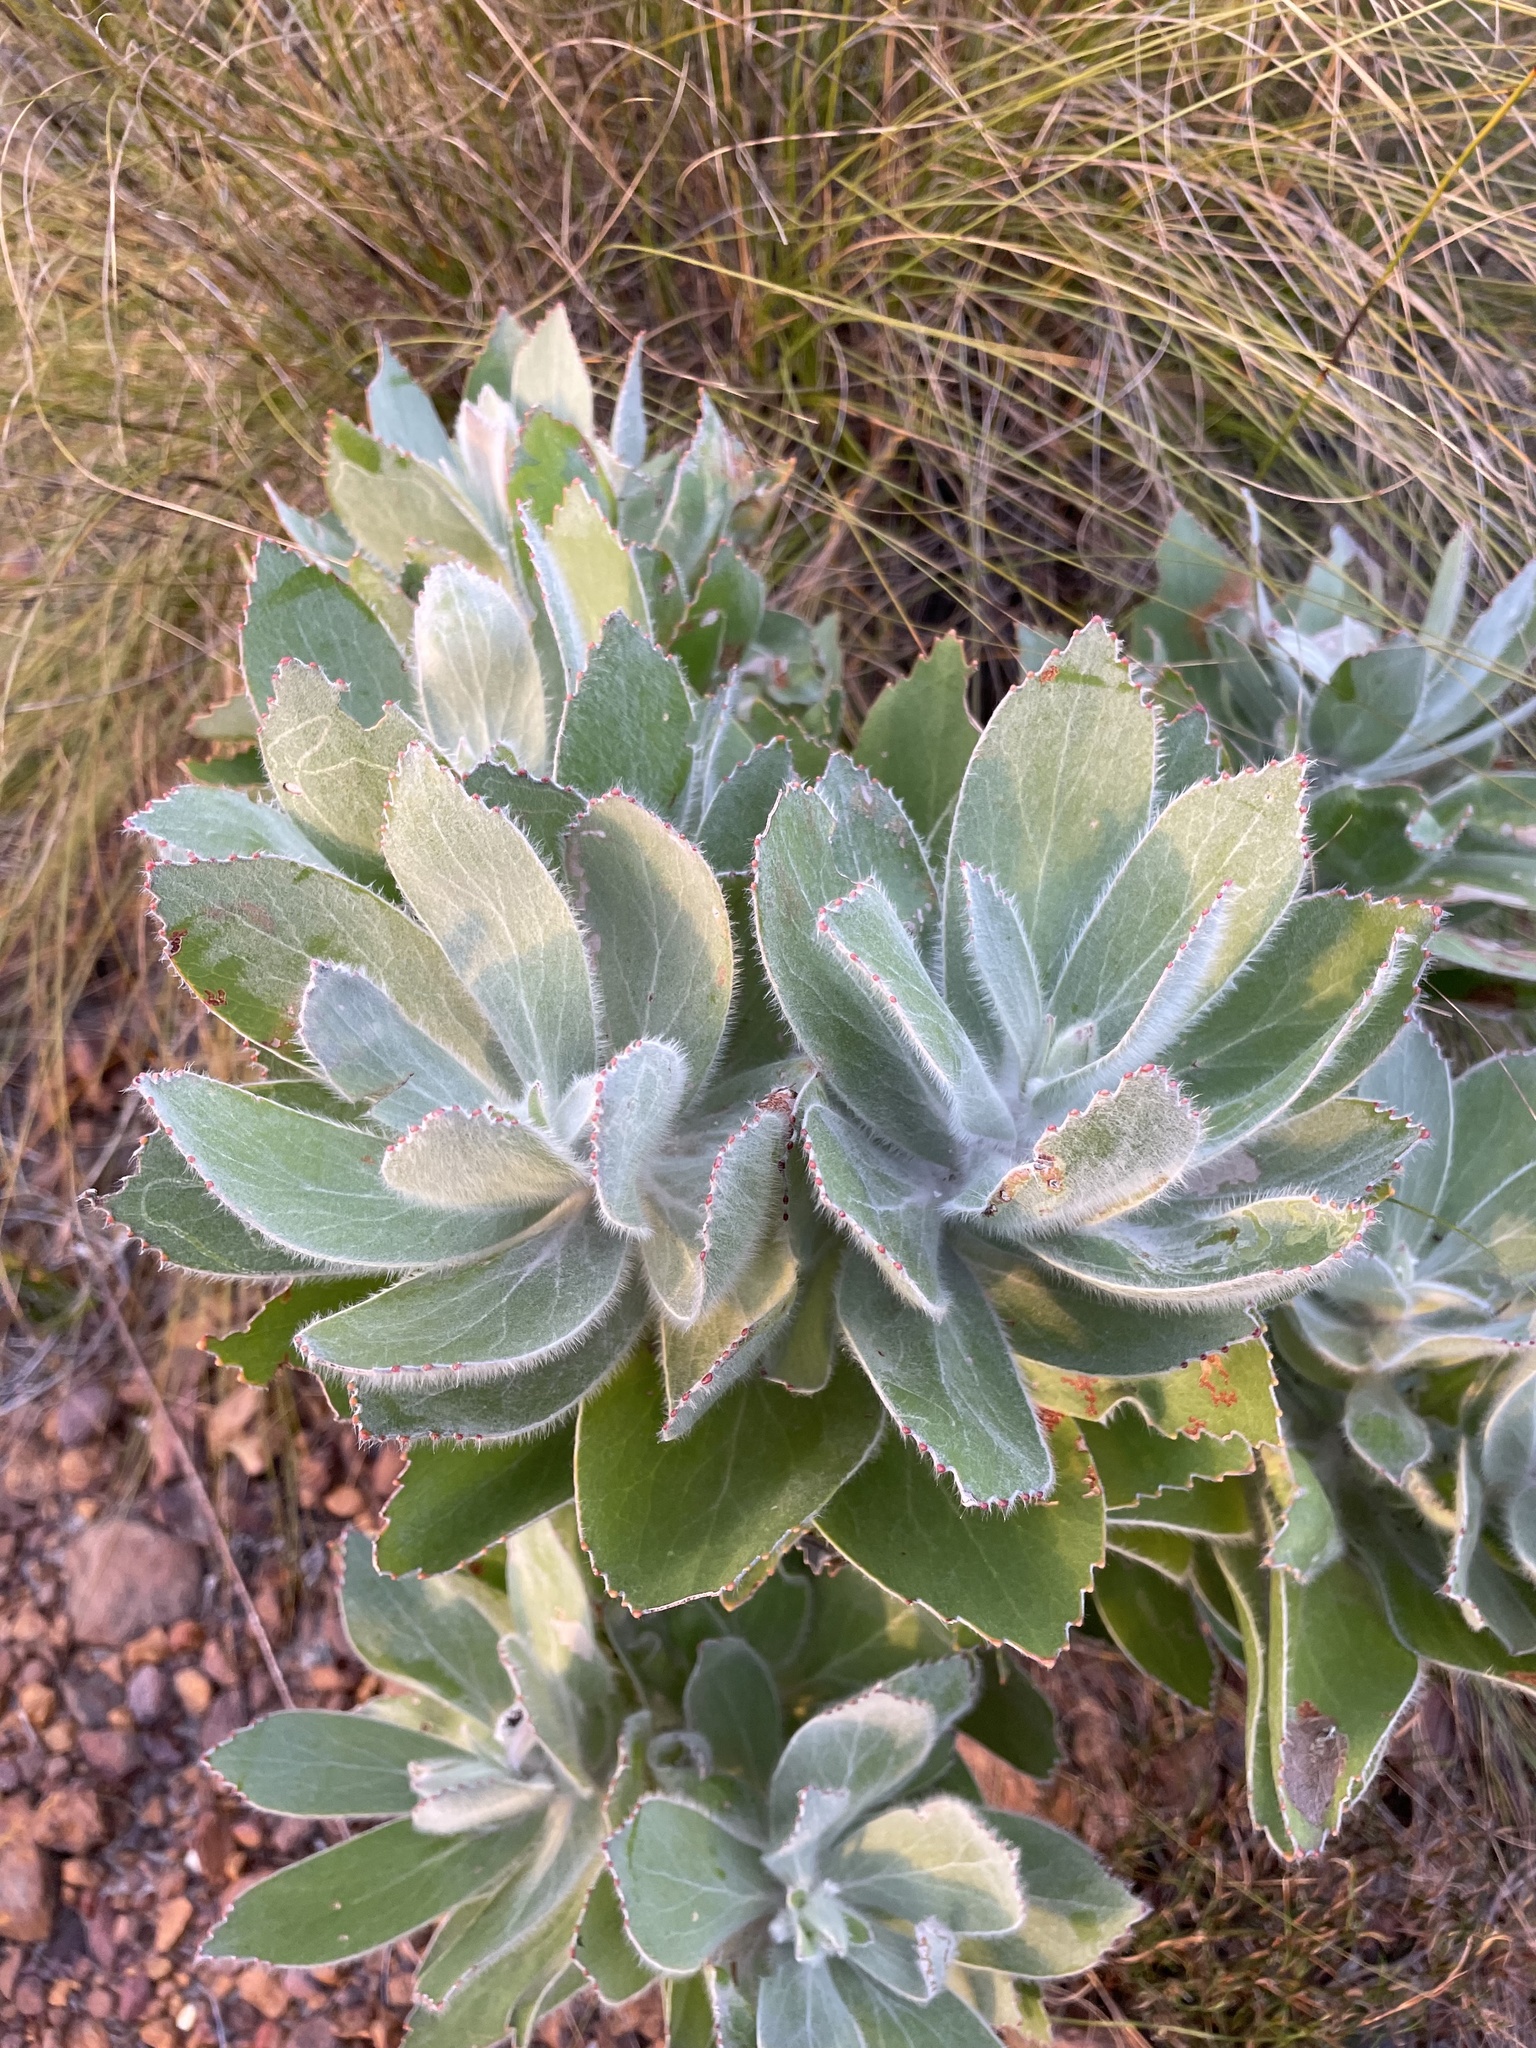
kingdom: Plantae
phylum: Tracheophyta
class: Magnoliopsida
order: Proteales
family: Proteaceae
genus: Leucospermum
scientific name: Leucospermum conocarpodendron
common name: Tree pincushion
